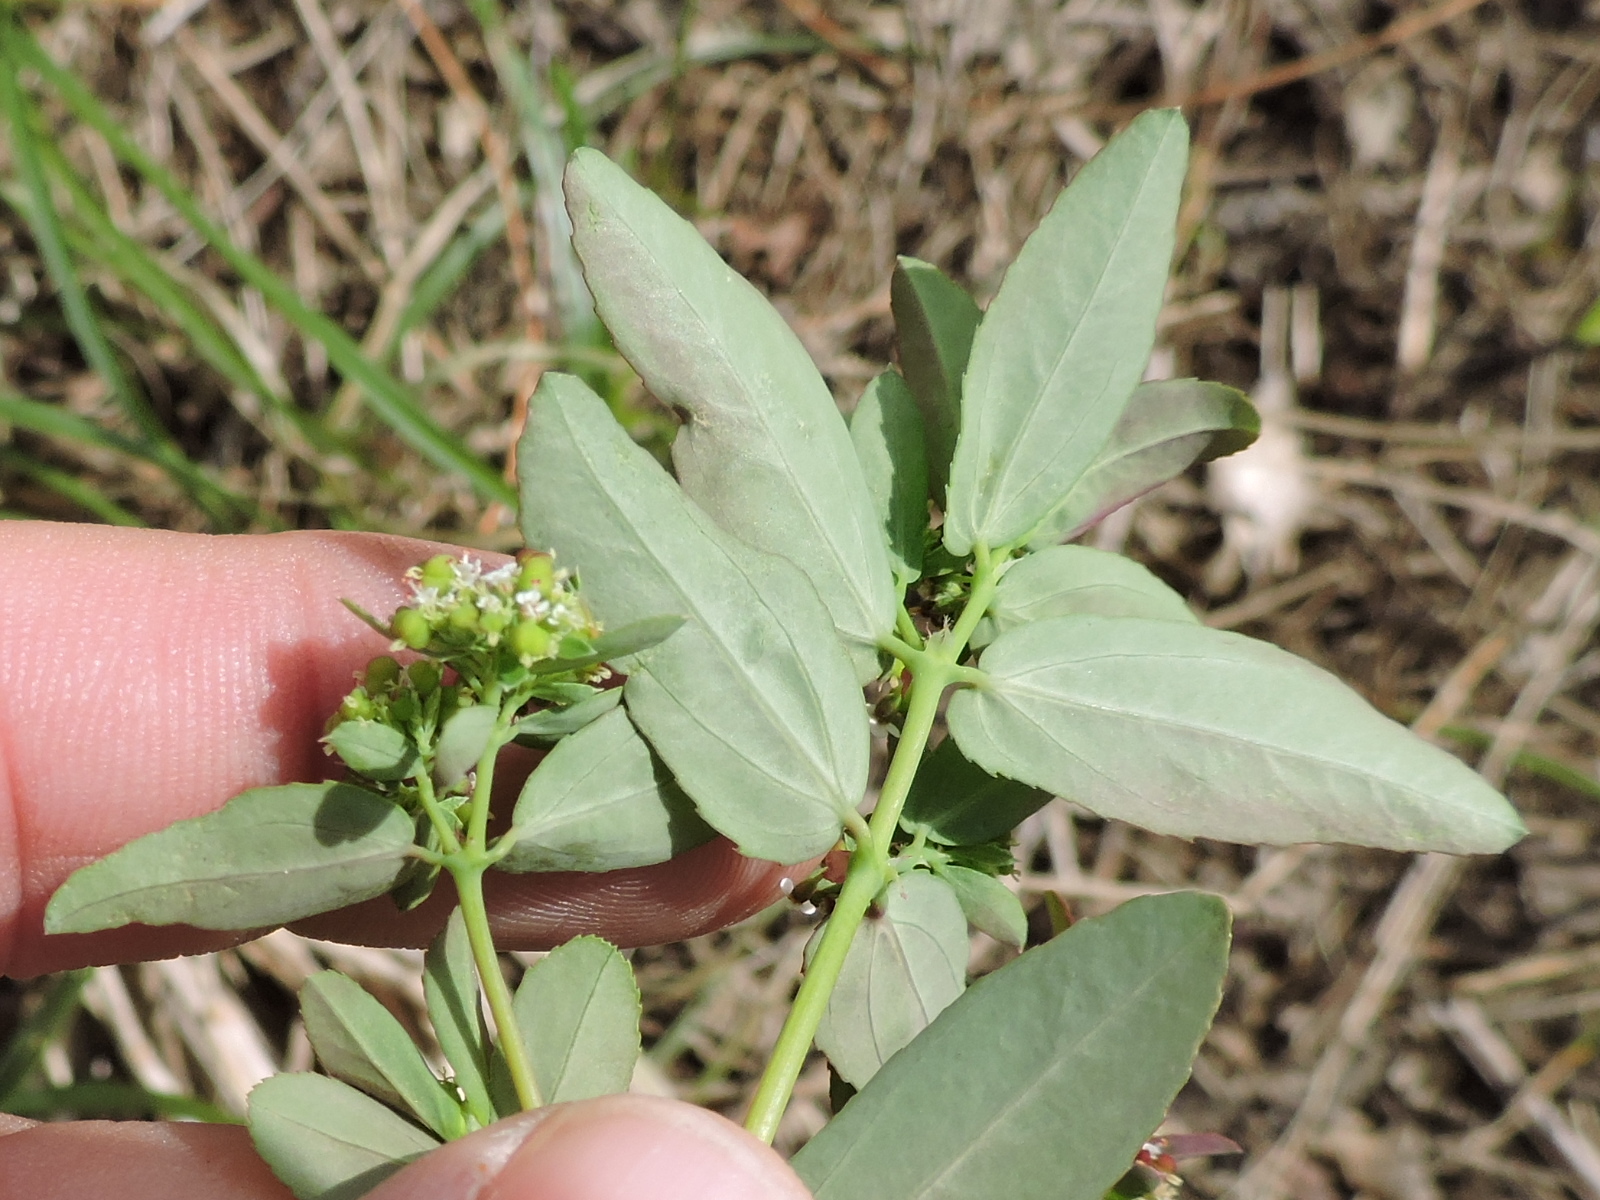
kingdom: Plantae
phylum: Tracheophyta
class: Magnoliopsida
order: Malpighiales
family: Euphorbiaceae
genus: Euphorbia
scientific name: Euphorbia hypericifolia
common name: Graceful sandmat
